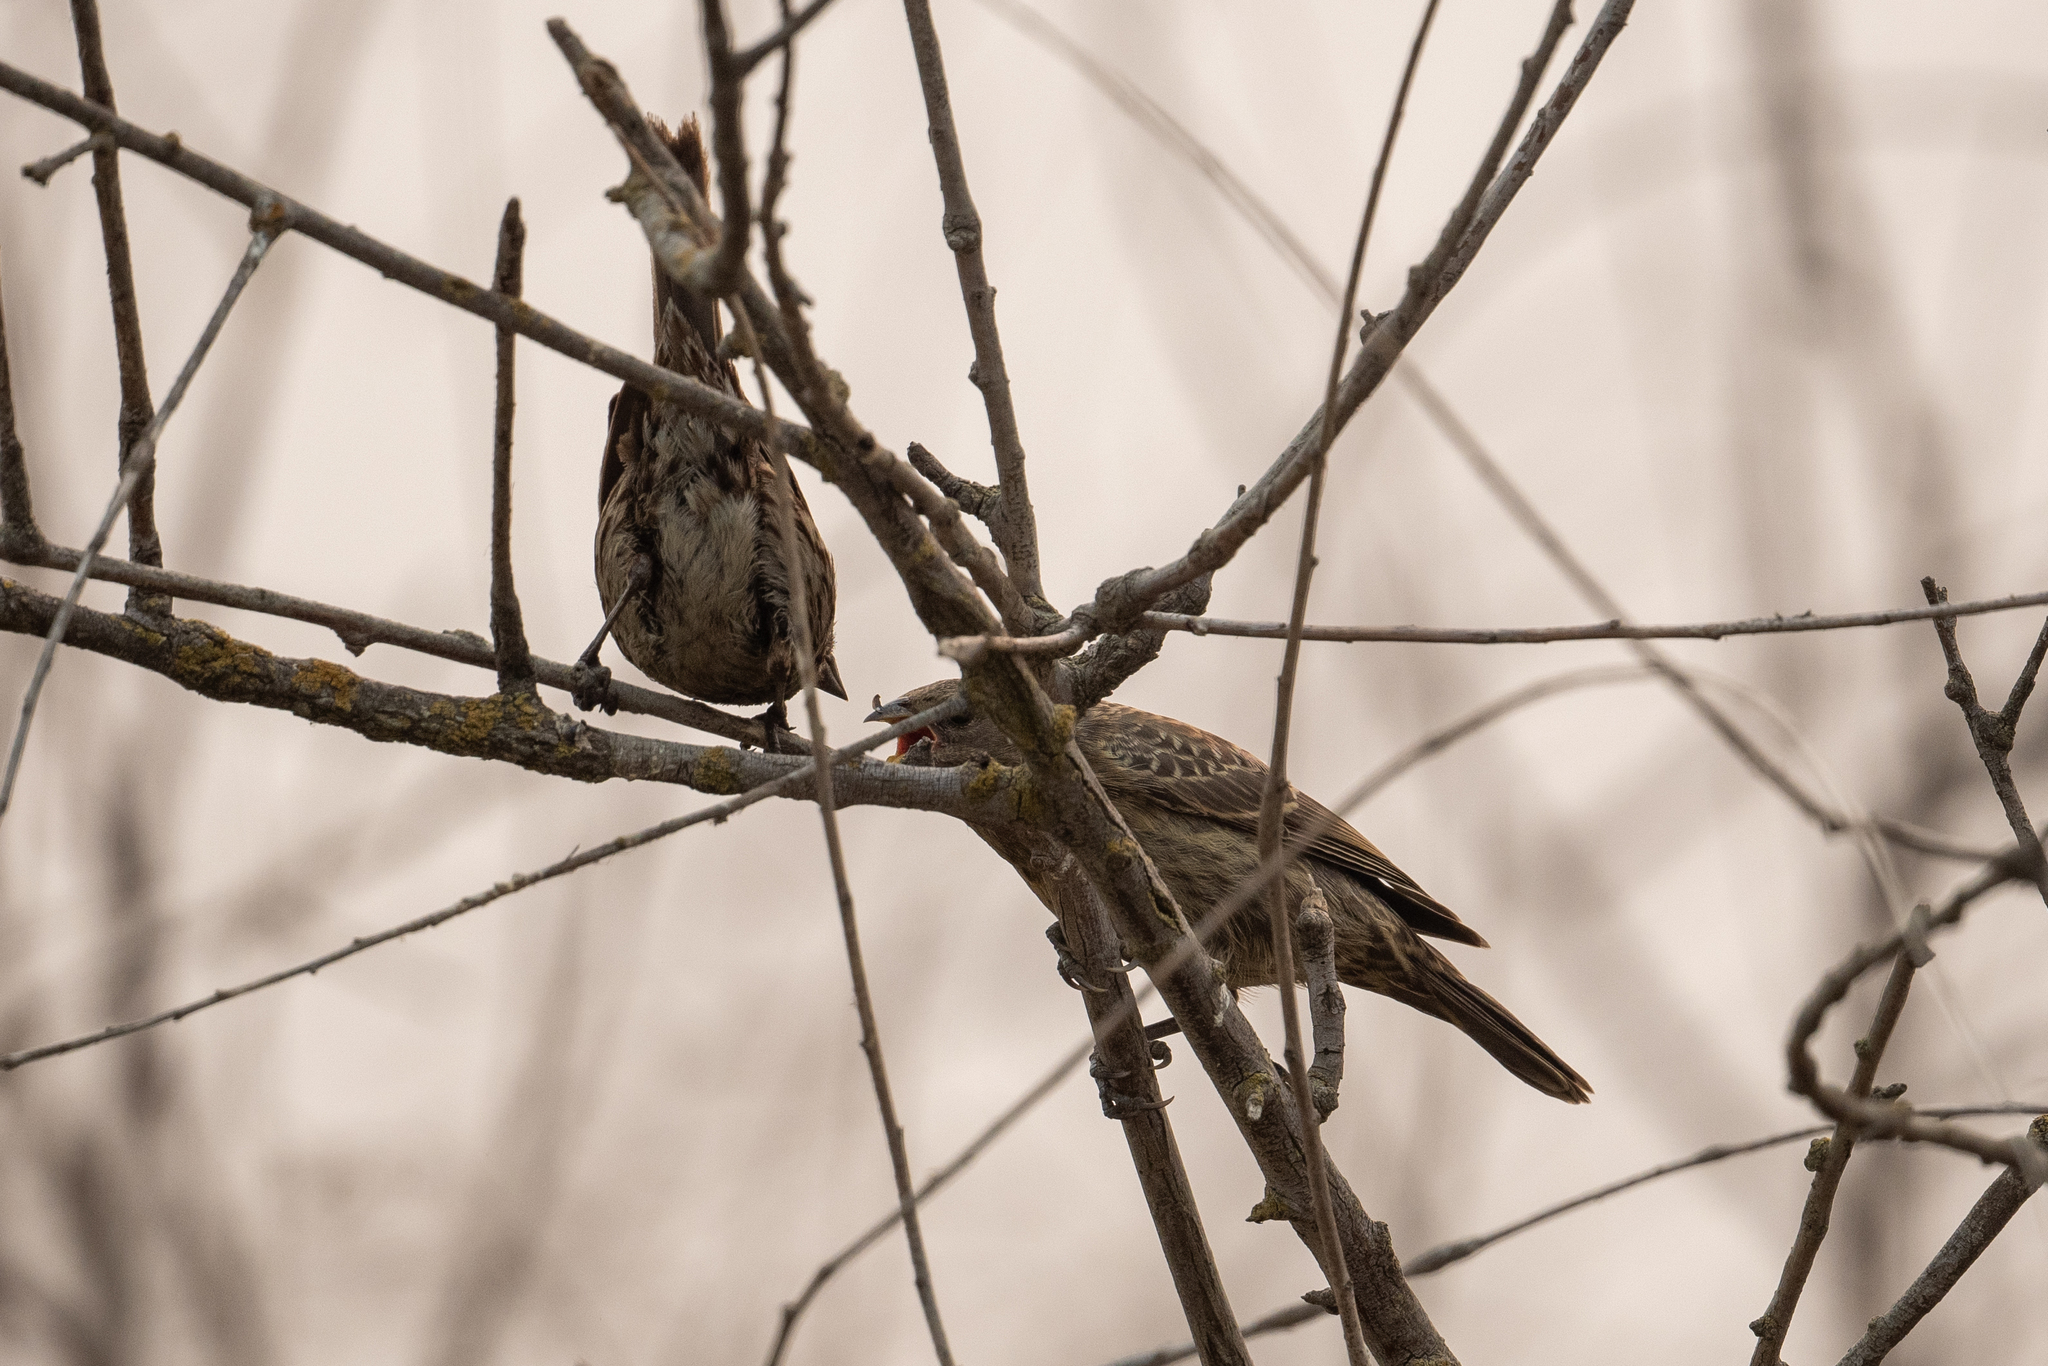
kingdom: Animalia
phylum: Chordata
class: Aves
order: Passeriformes
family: Passerellidae
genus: Melospiza
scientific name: Melospiza melodia
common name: Song sparrow
